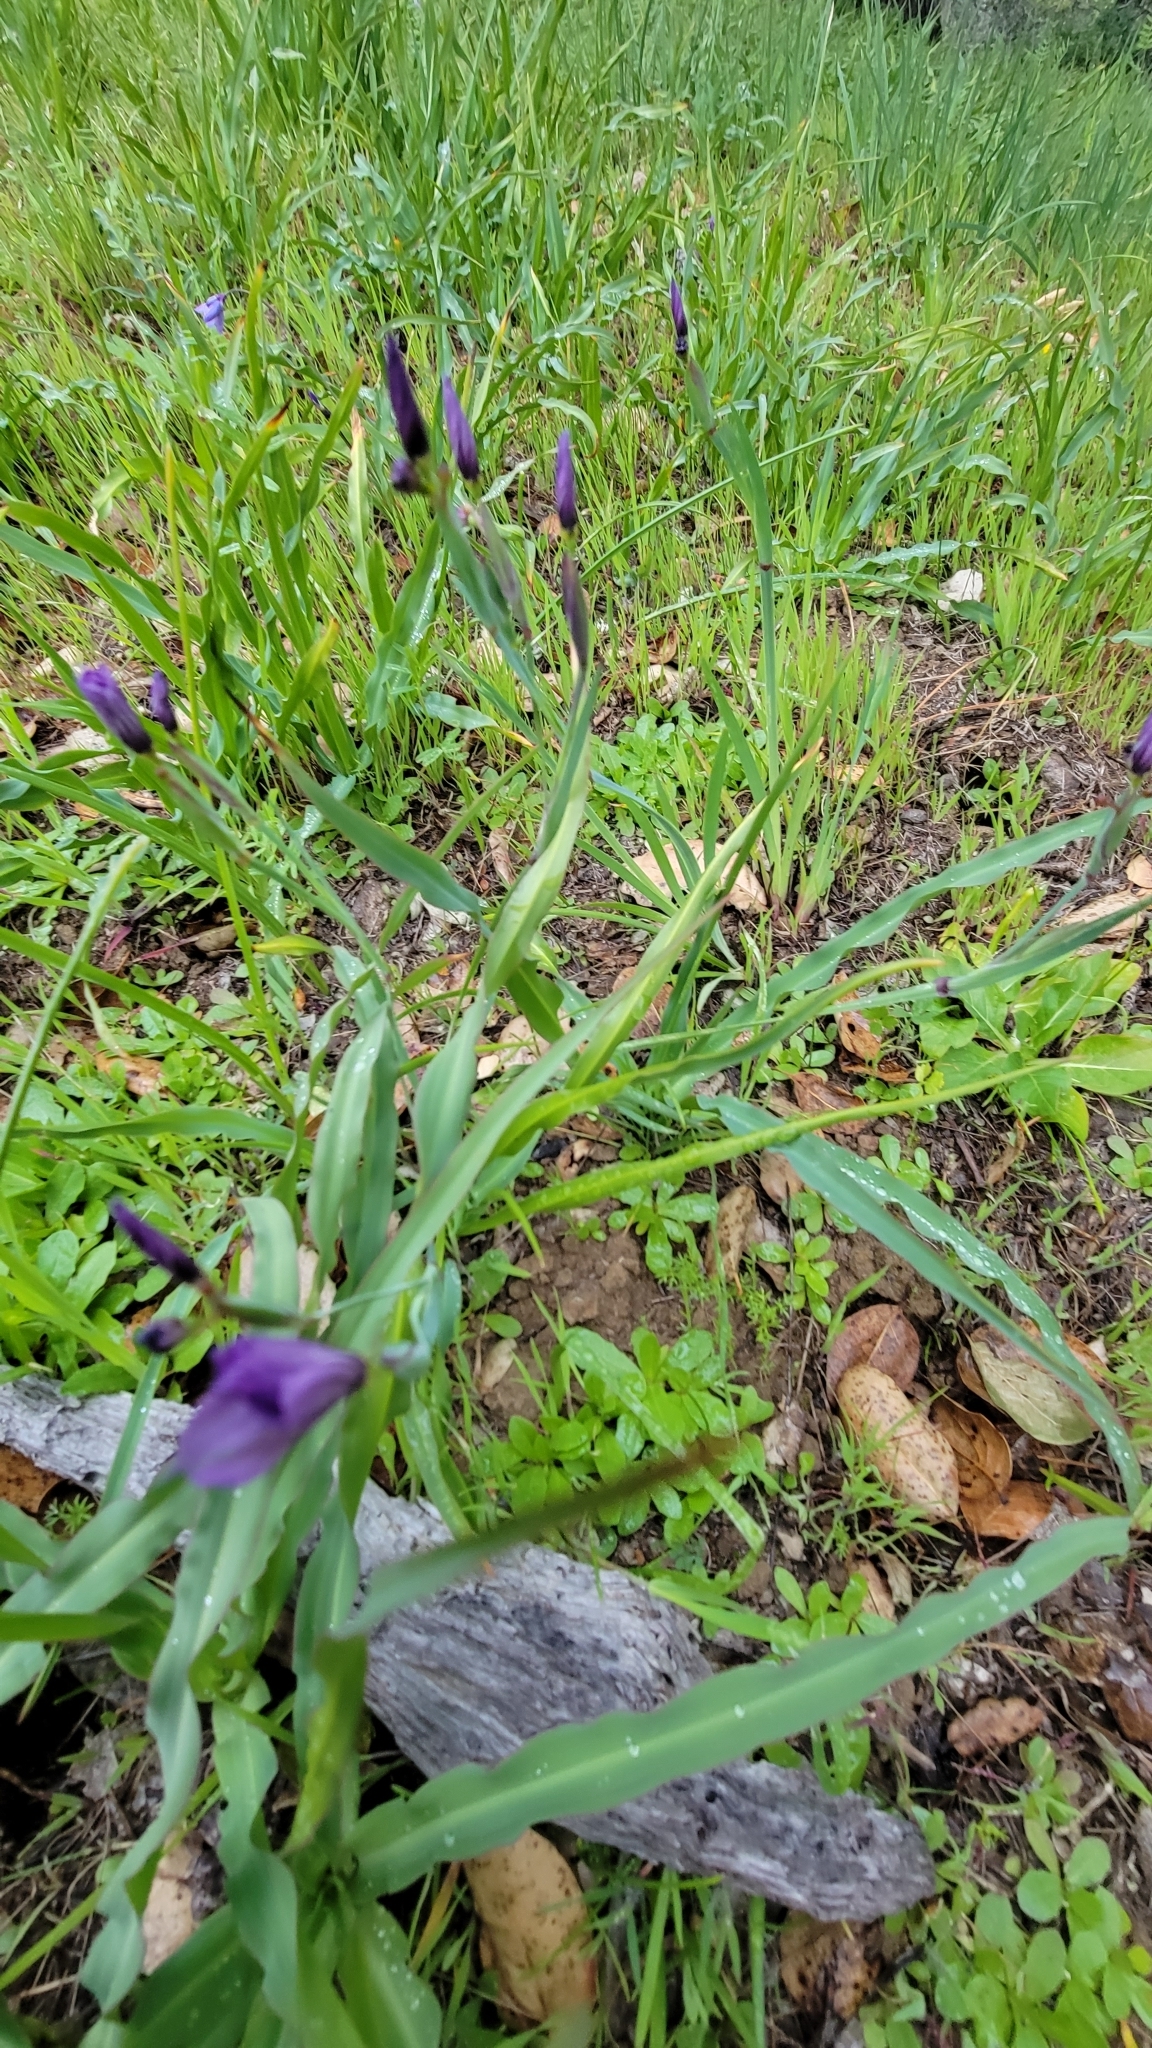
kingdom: Plantae
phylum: Tracheophyta
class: Liliopsida
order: Asparagales
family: Iridaceae
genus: Sisyrinchium
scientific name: Sisyrinchium bellum
